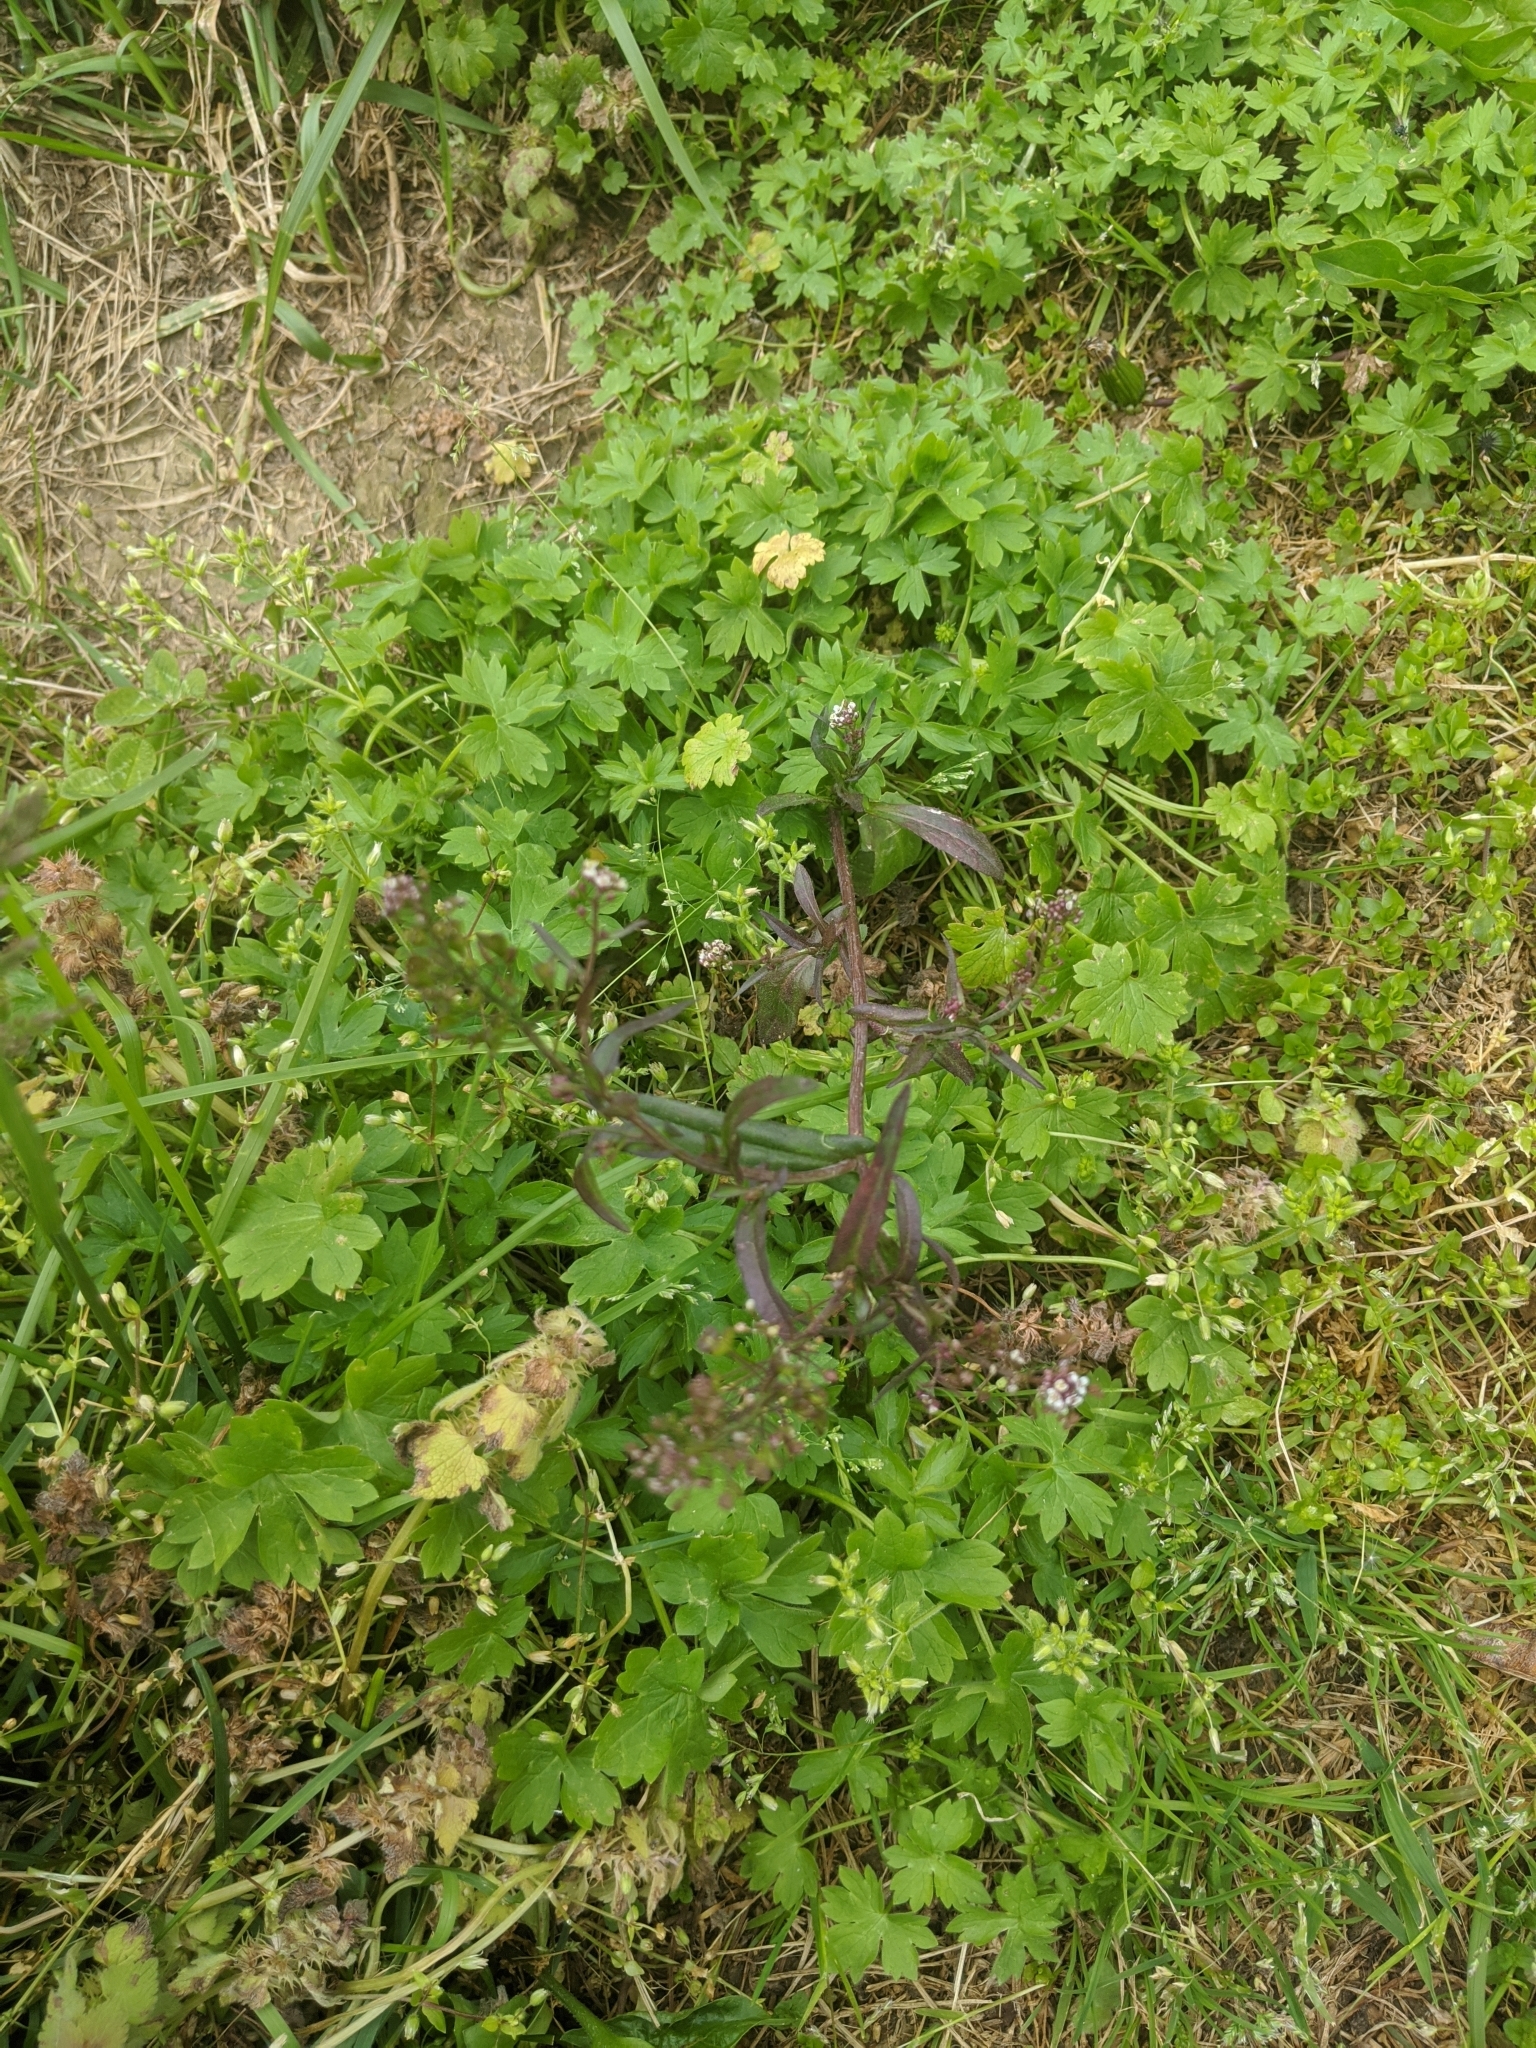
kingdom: Plantae
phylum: Tracheophyta
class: Magnoliopsida
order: Brassicales
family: Brassicaceae
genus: Capsella
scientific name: Capsella bursa-pastoris
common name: Shepherd's purse
